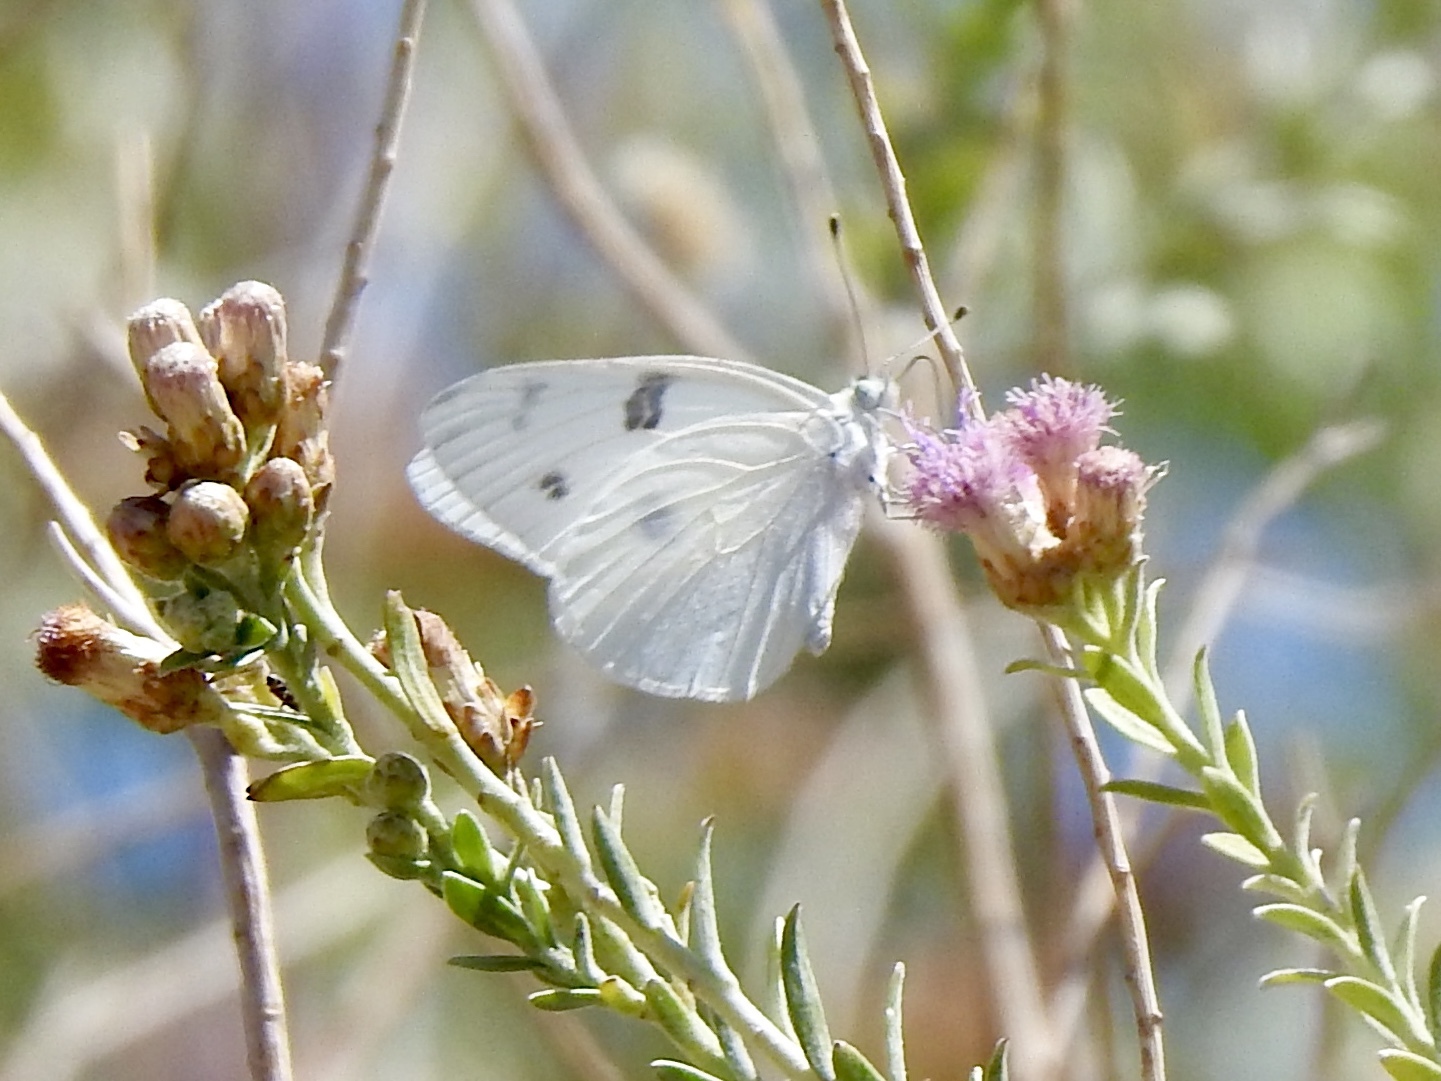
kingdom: Animalia
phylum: Arthropoda
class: Insecta
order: Lepidoptera
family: Pieridae
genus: Pontia
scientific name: Pontia protodice
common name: Checkered white
